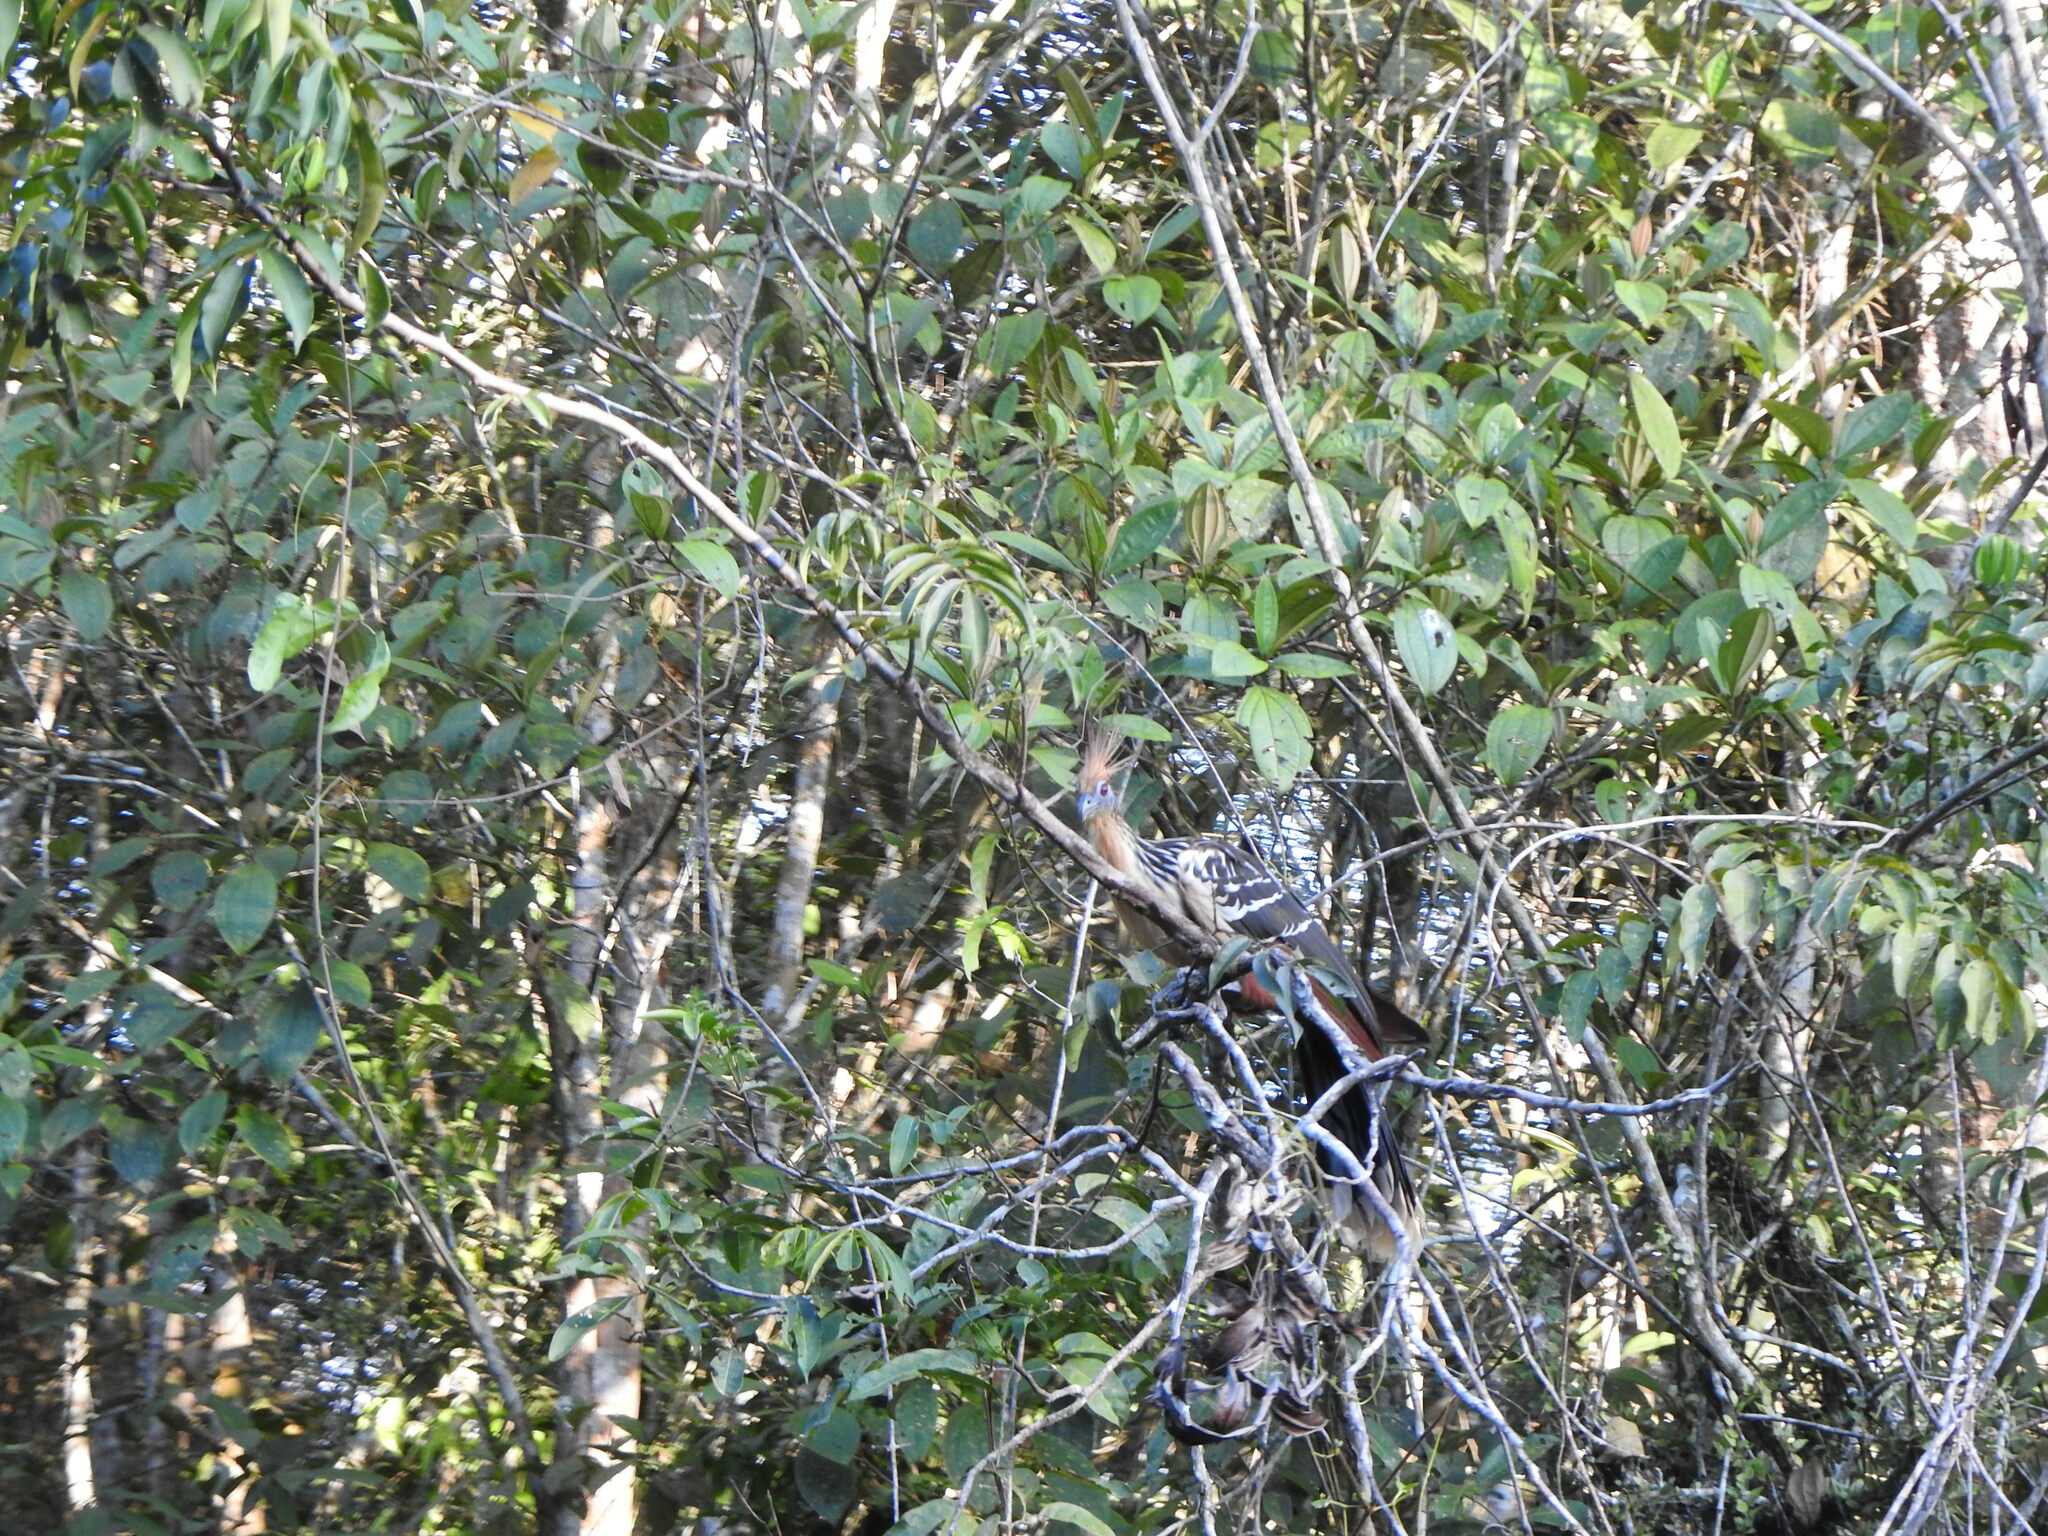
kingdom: Animalia
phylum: Chordata
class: Aves
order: Opisthocomiformes
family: Opisthocomidae
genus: Opisthocomus
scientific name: Opisthocomus hoazin
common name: Hoatzin
